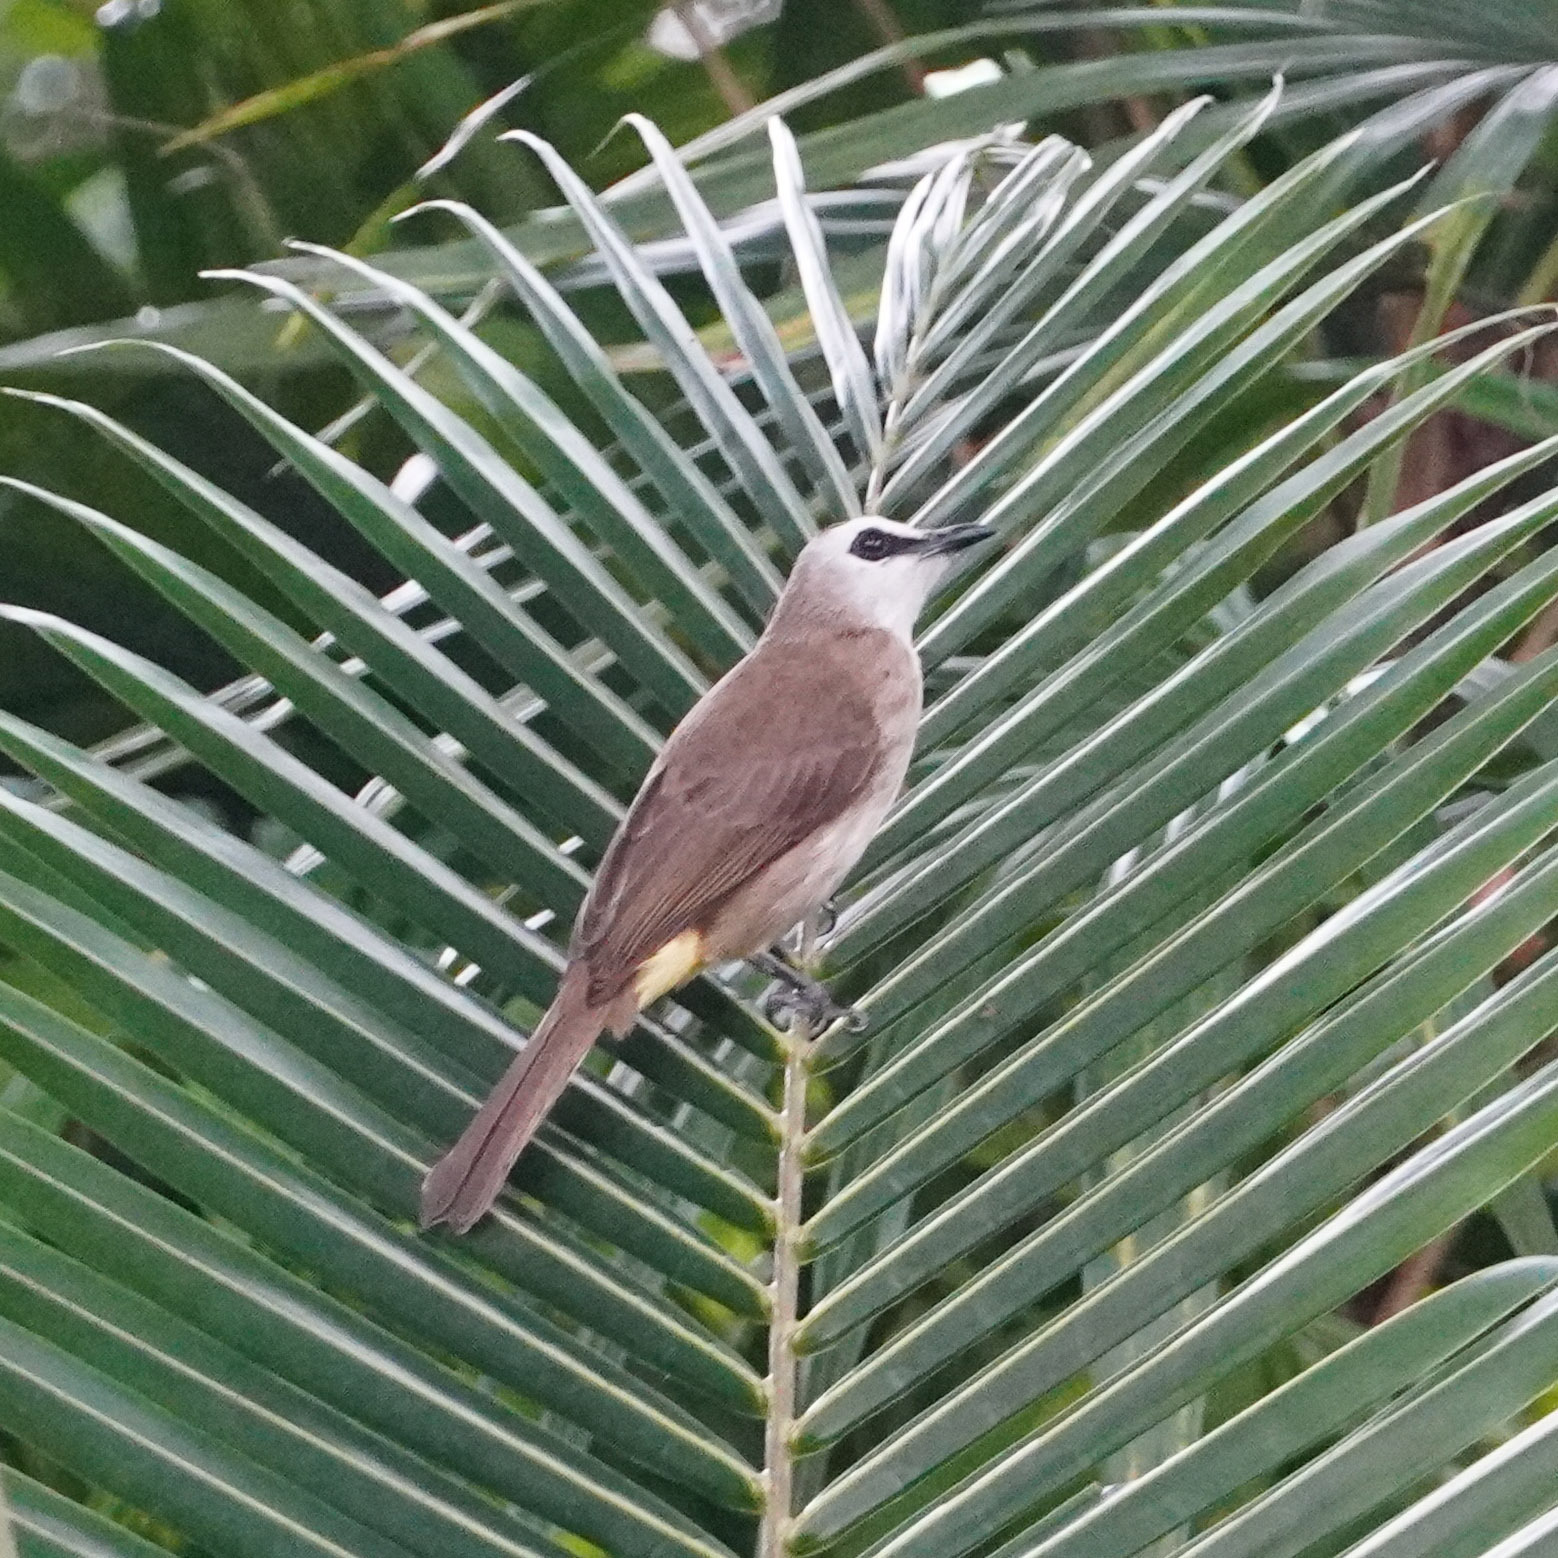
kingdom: Animalia
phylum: Chordata
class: Aves
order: Passeriformes
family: Pycnonotidae
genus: Pycnonotus
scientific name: Pycnonotus goiavier
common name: Yellow-vented bulbul
